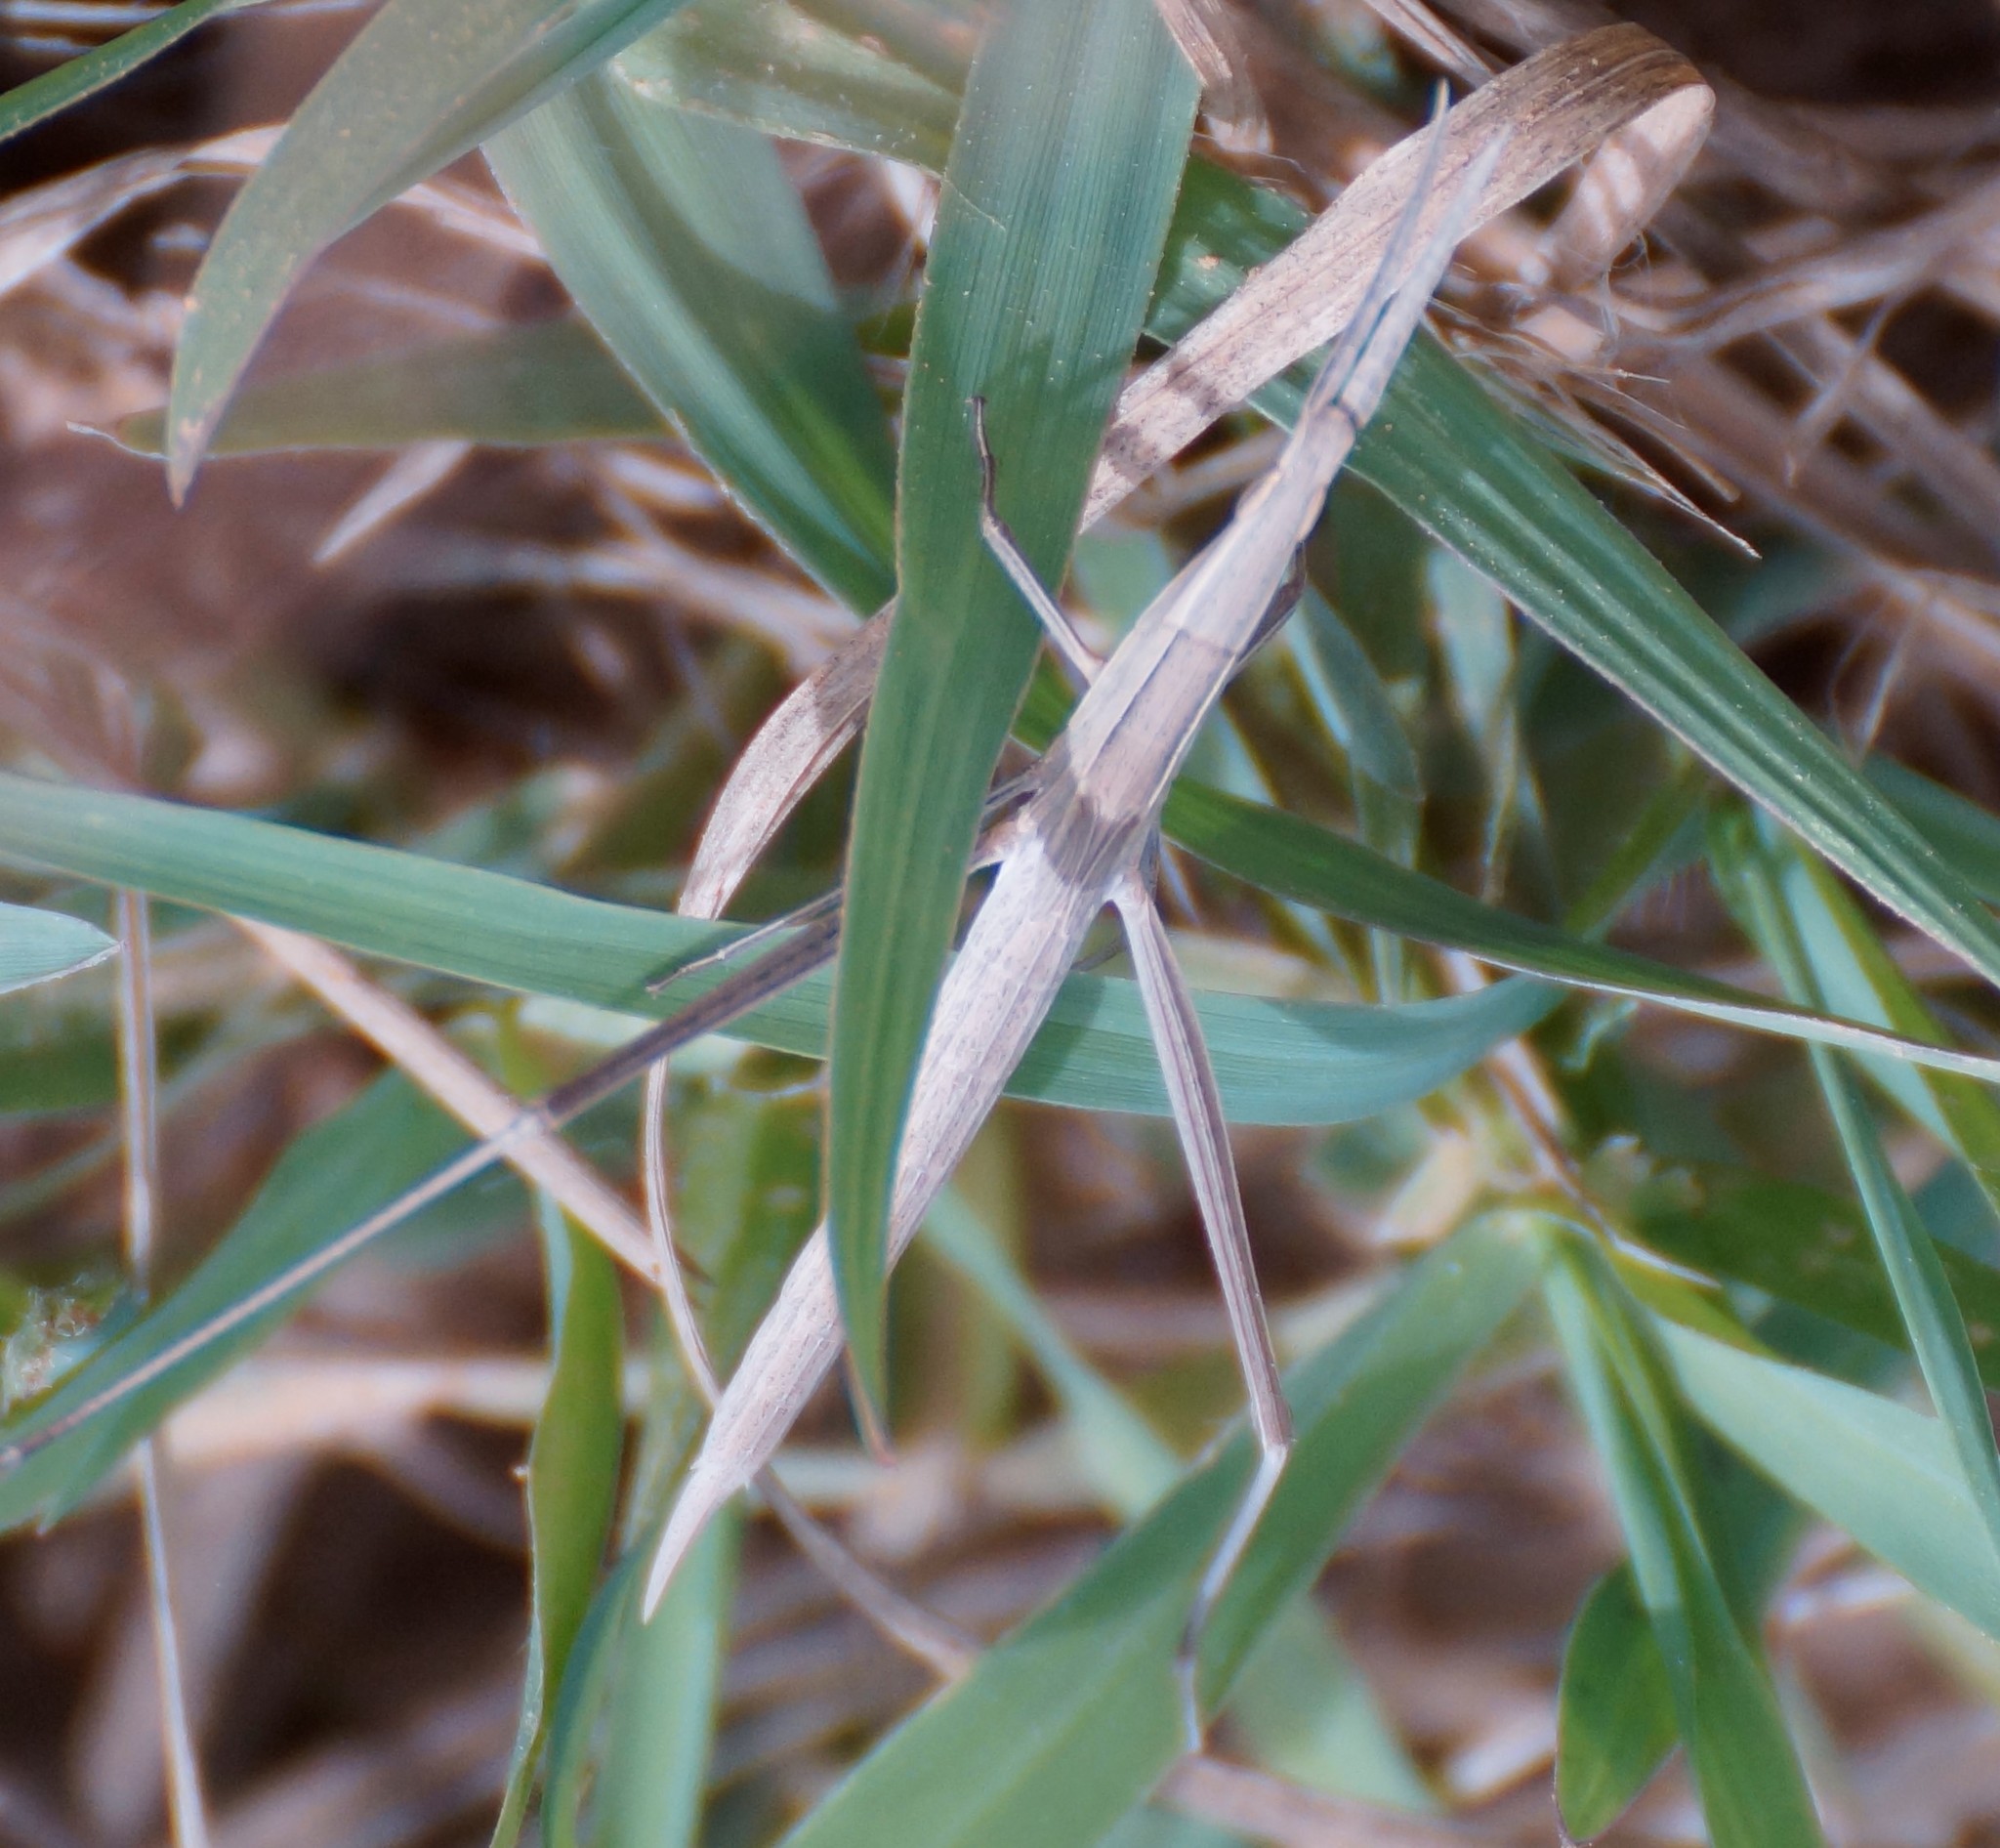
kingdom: Animalia
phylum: Arthropoda
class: Insecta
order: Orthoptera
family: Acrididae
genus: Acrida
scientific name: Acrida conica
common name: Giant green slantface
